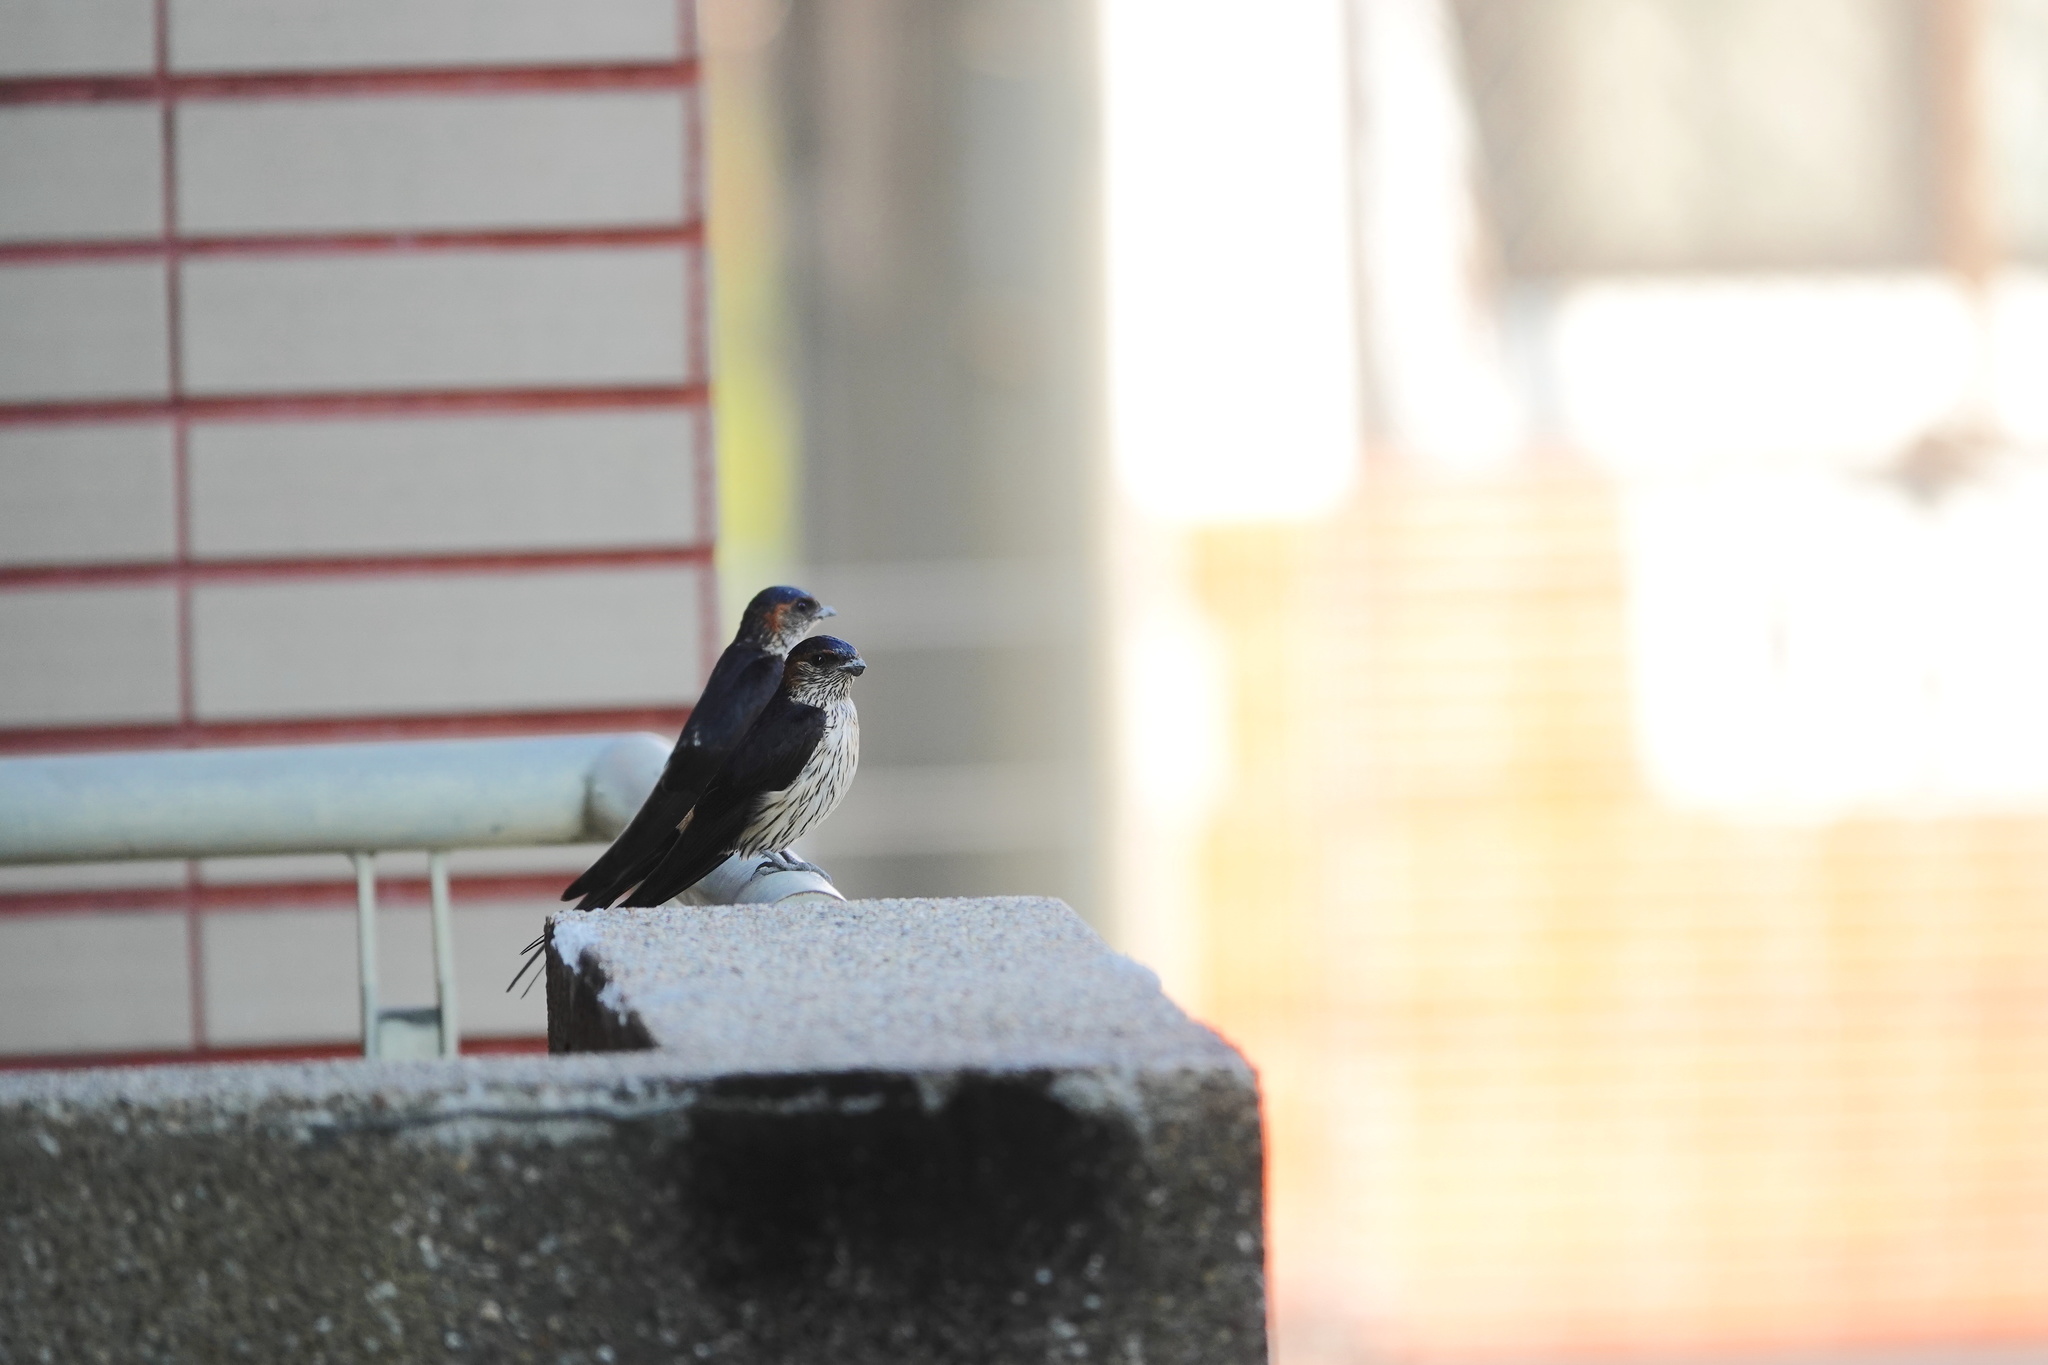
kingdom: Animalia
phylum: Chordata
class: Aves
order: Passeriformes
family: Hirundinidae
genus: Cecropis
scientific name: Cecropis striolata
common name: Striated swallow
